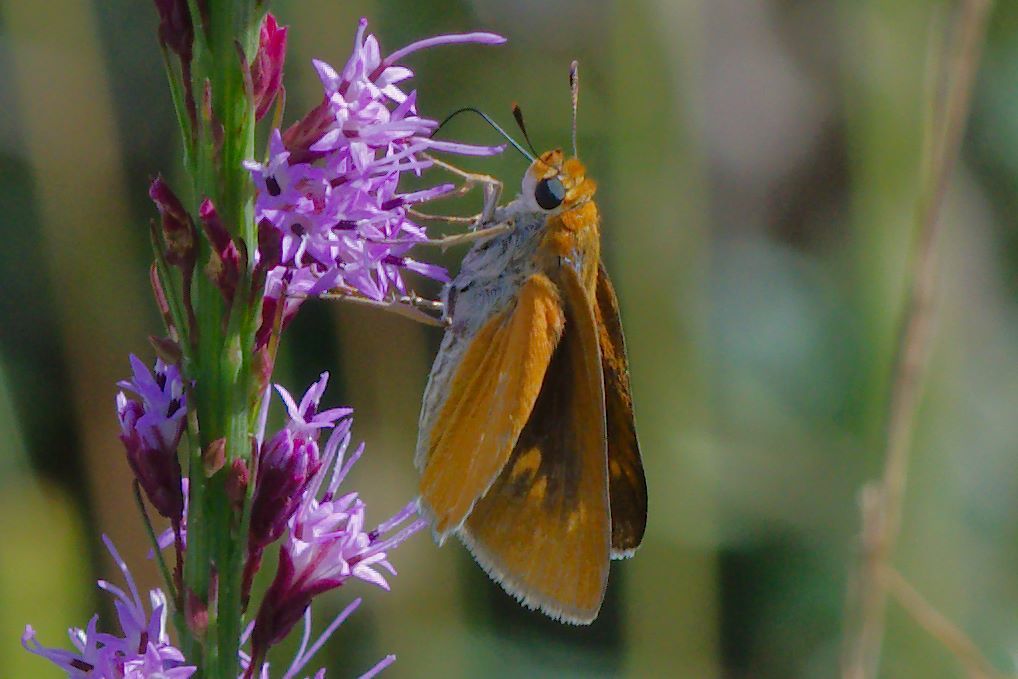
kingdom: Animalia
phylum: Arthropoda
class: Insecta
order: Lepidoptera
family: Hesperiidae
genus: Euphyes
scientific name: Euphyes arpa
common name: Palmetto skipper
